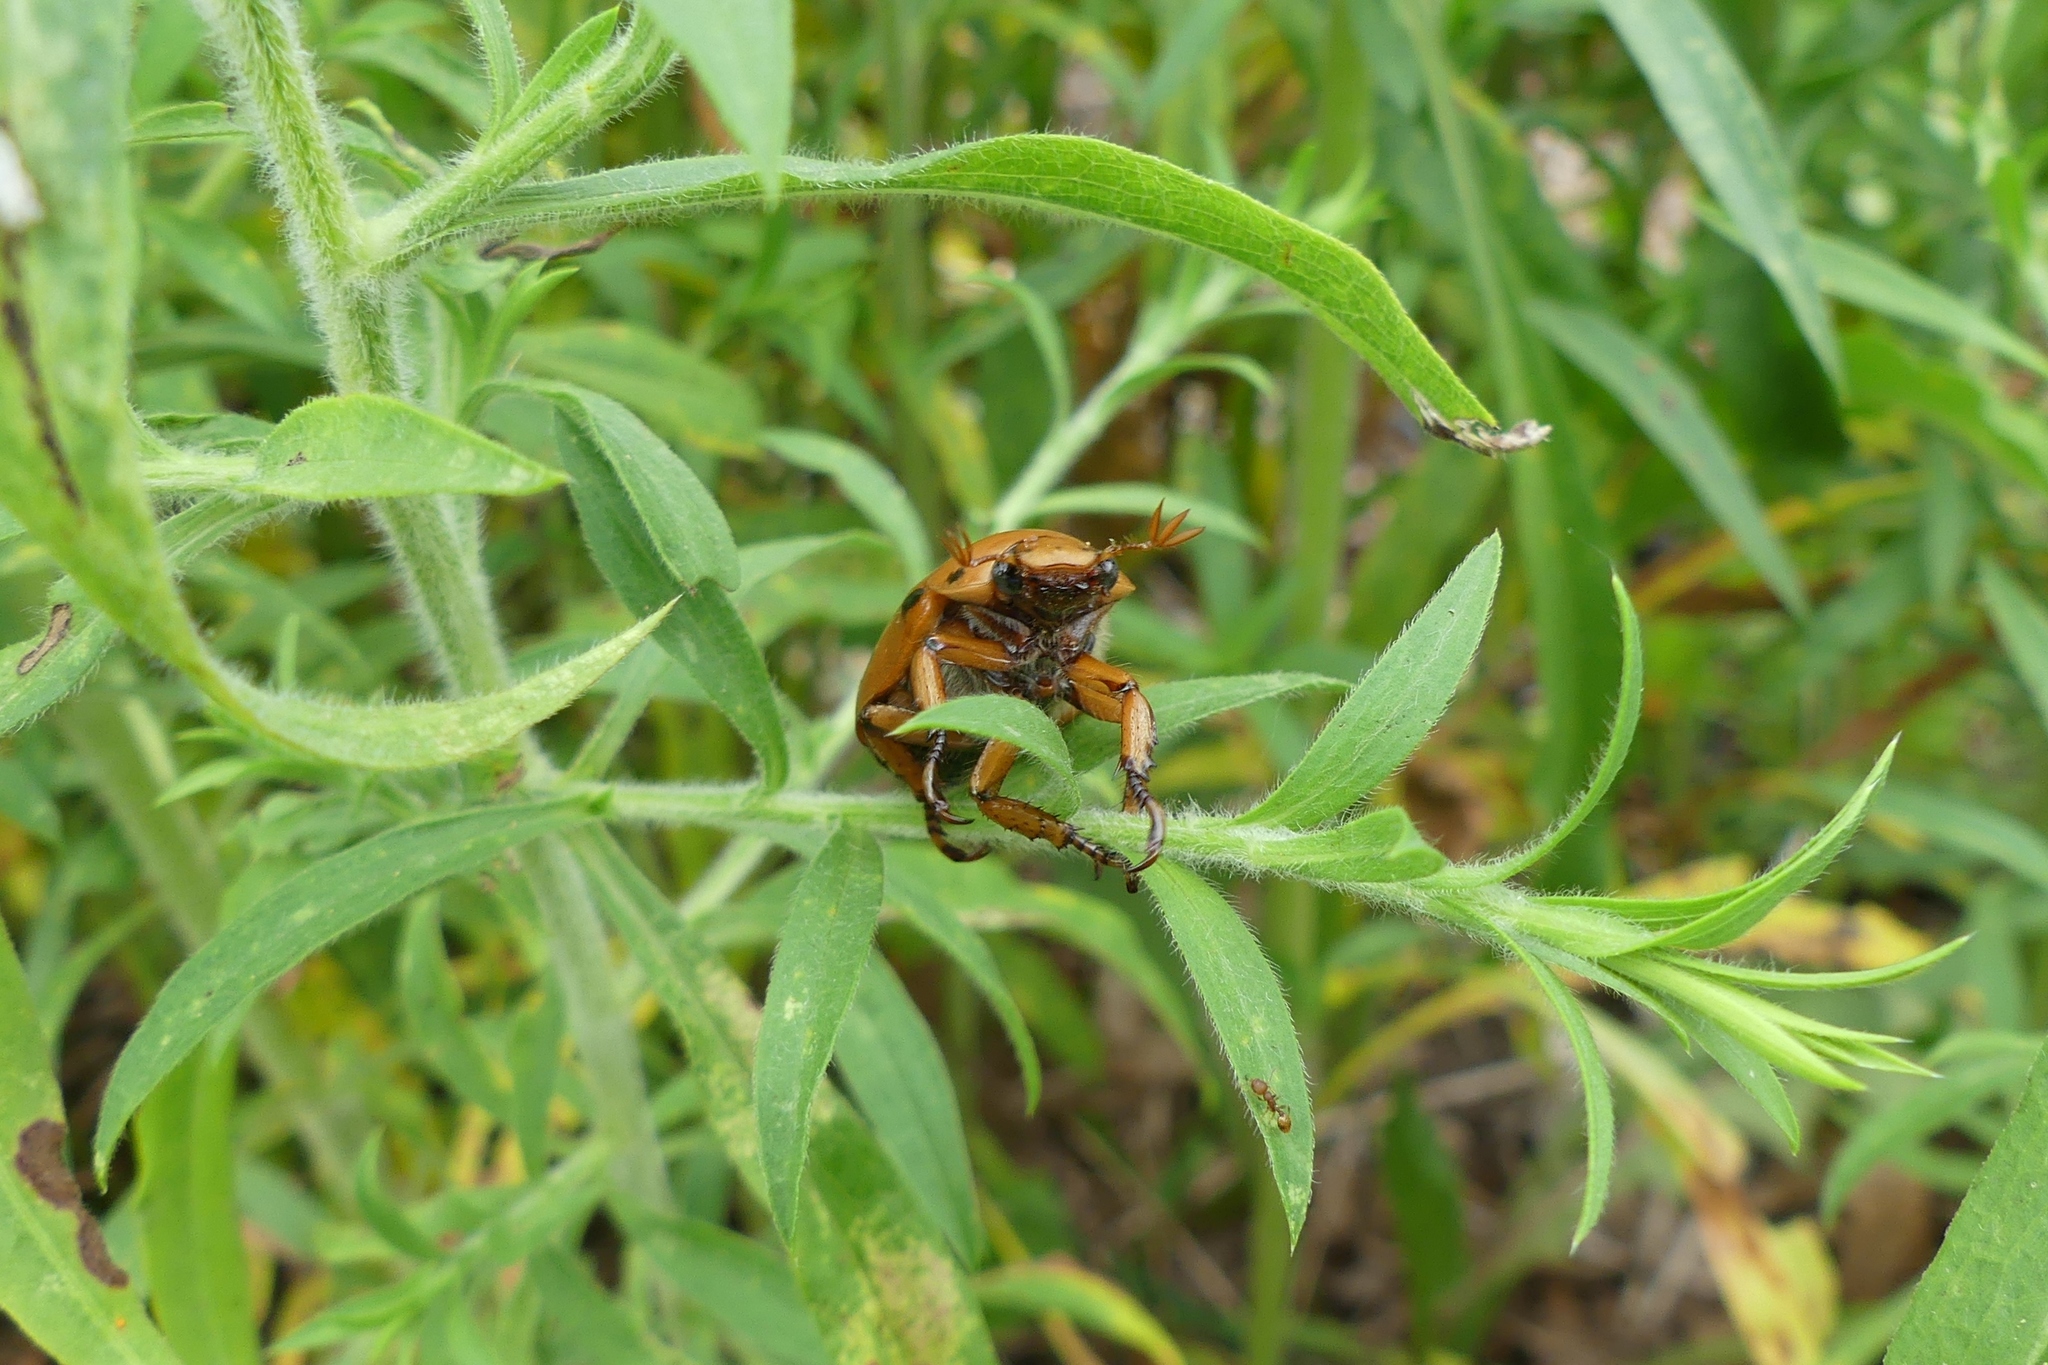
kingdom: Animalia
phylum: Arthropoda
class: Insecta
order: Coleoptera
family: Scarabaeidae
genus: Pelidnota
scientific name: Pelidnota punctata
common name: Grapevine beetle
